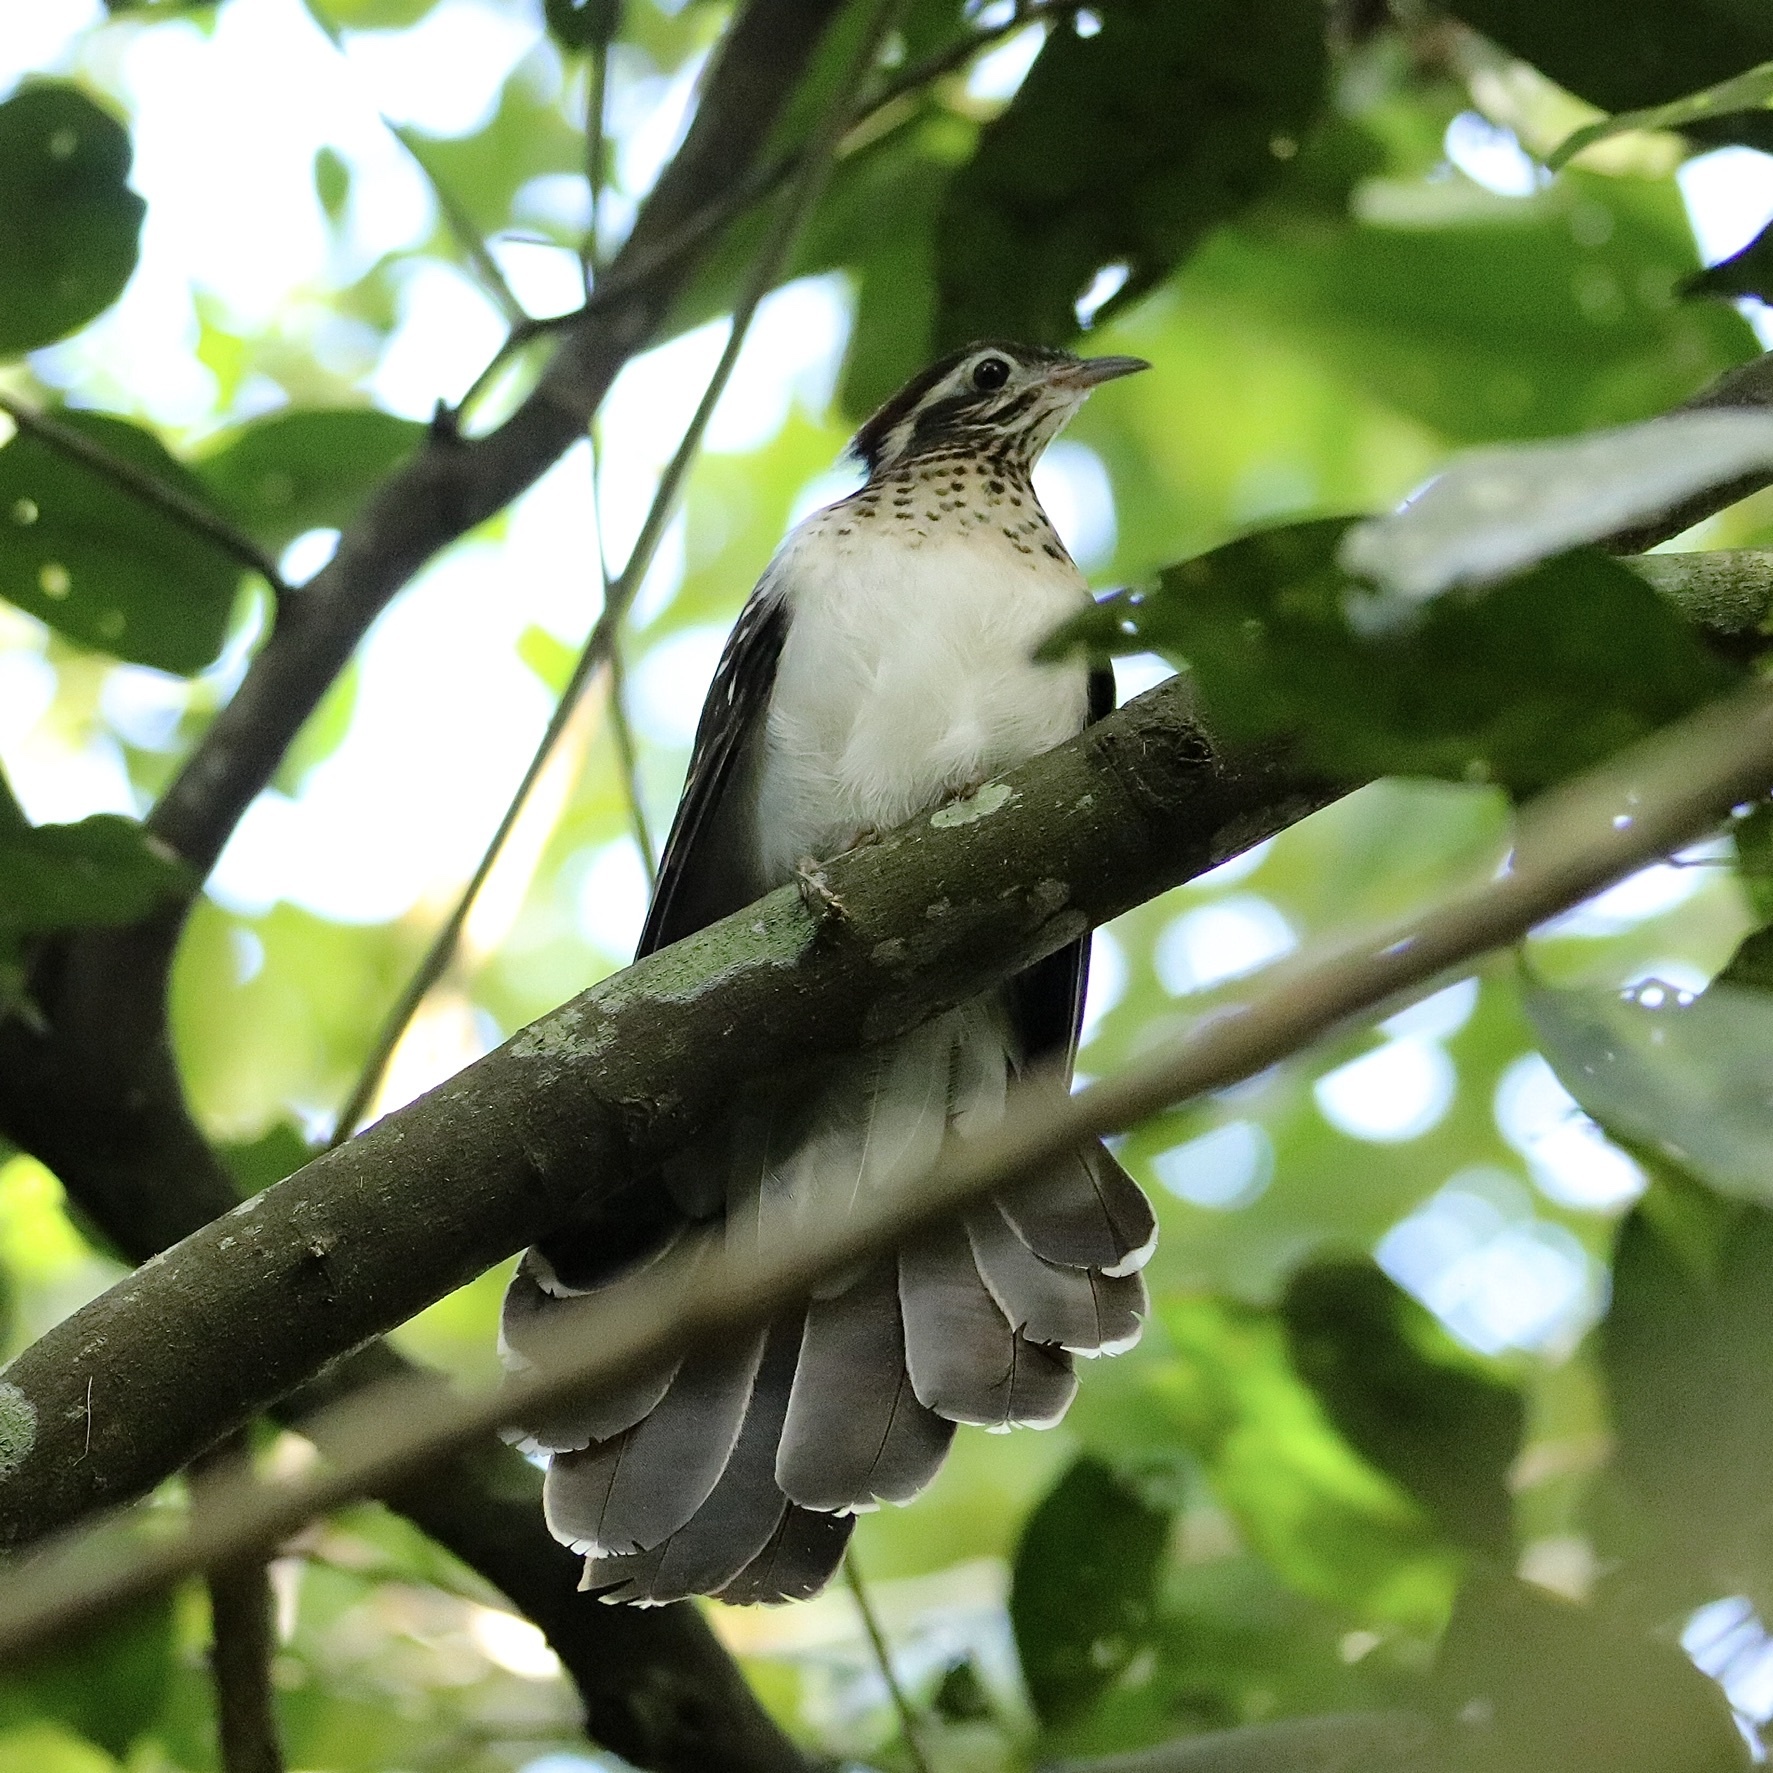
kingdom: Animalia
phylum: Chordata
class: Aves
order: Cuculiformes
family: Cuculidae
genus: Dromococcyx
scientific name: Dromococcyx phasianellus
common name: Pheasant cuckoo
